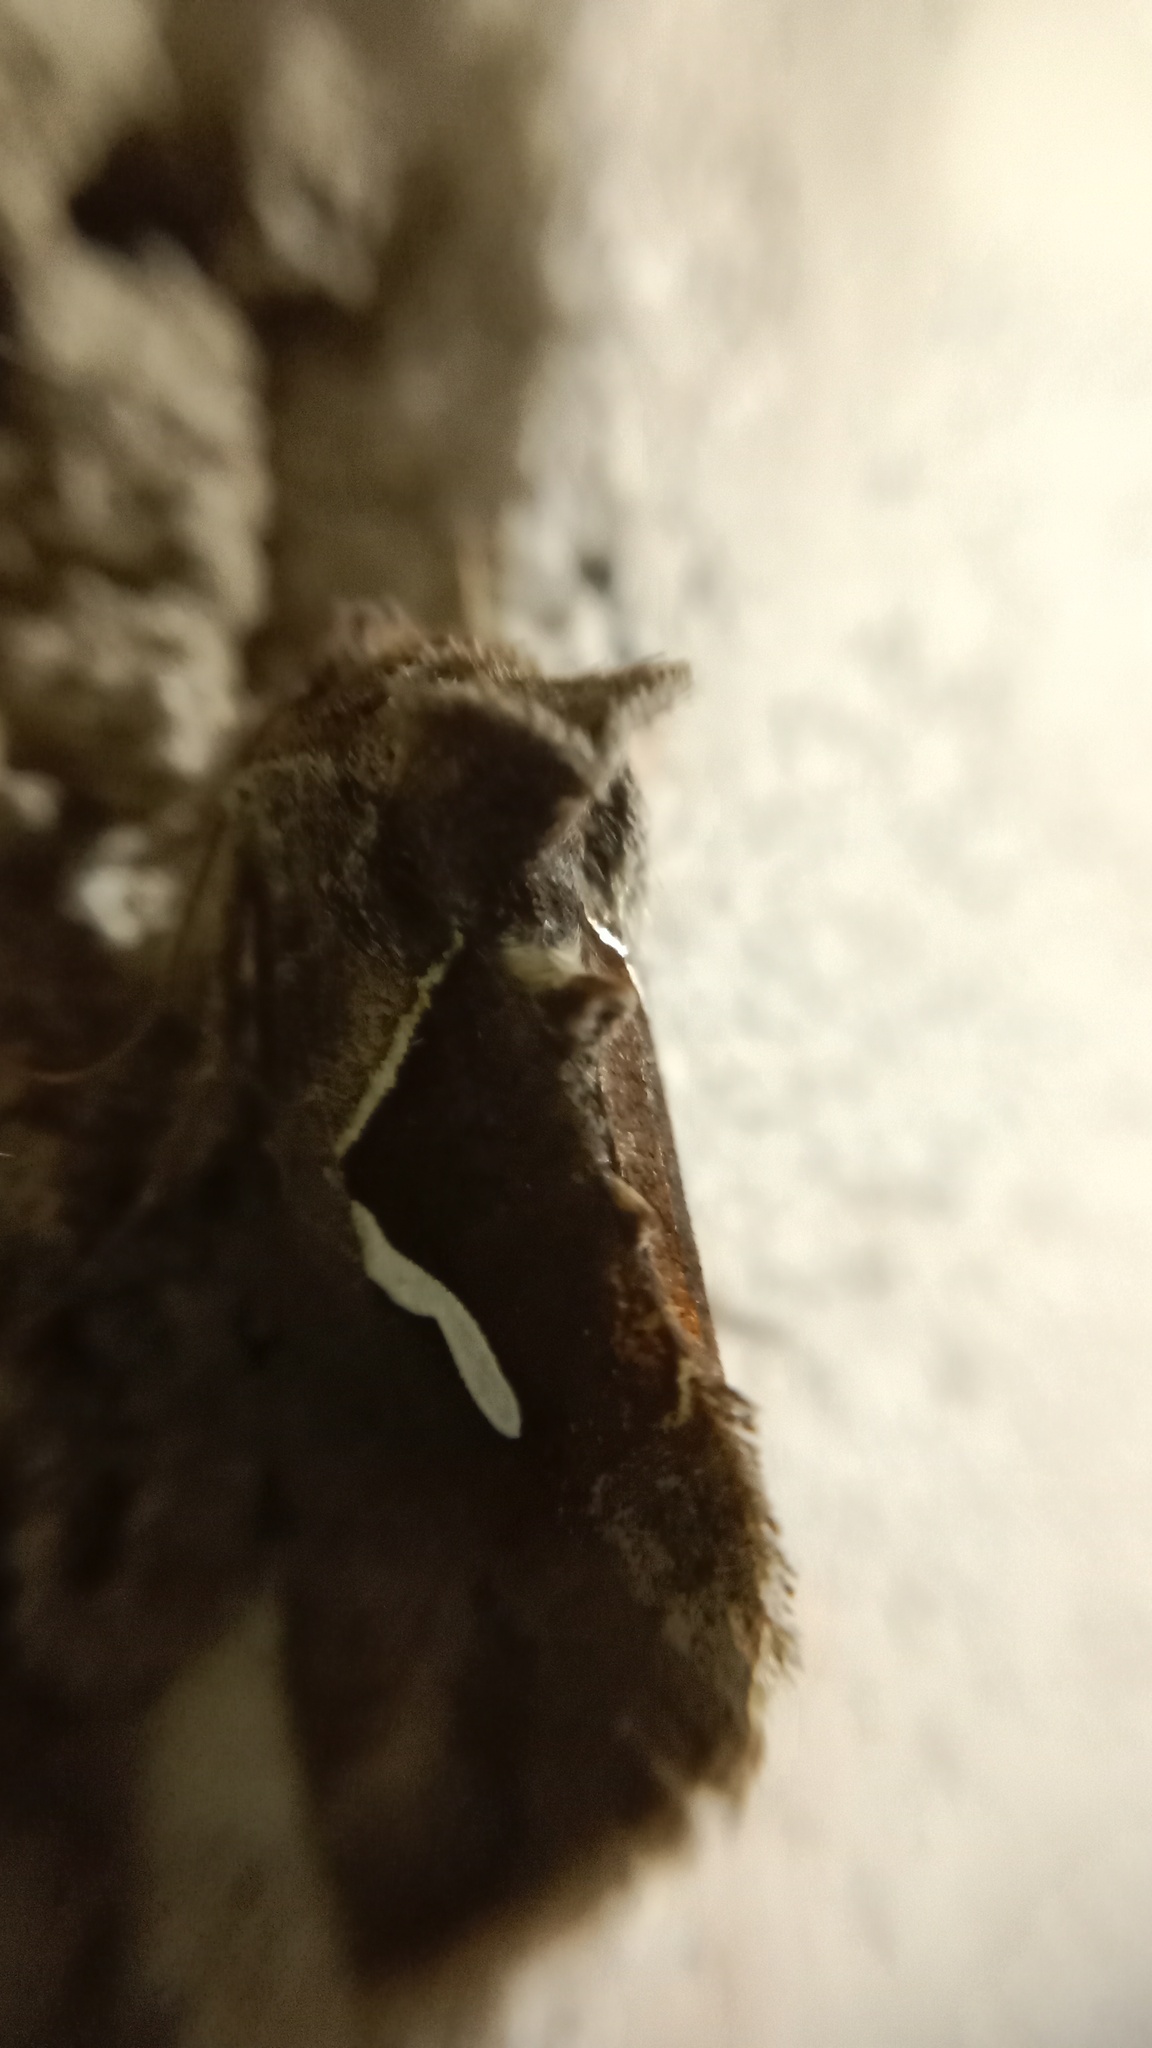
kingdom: Animalia
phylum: Arthropoda
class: Insecta
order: Lepidoptera
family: Noctuidae
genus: Macdunnoughia
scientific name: Macdunnoughia confusa
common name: Dewick's plusia
